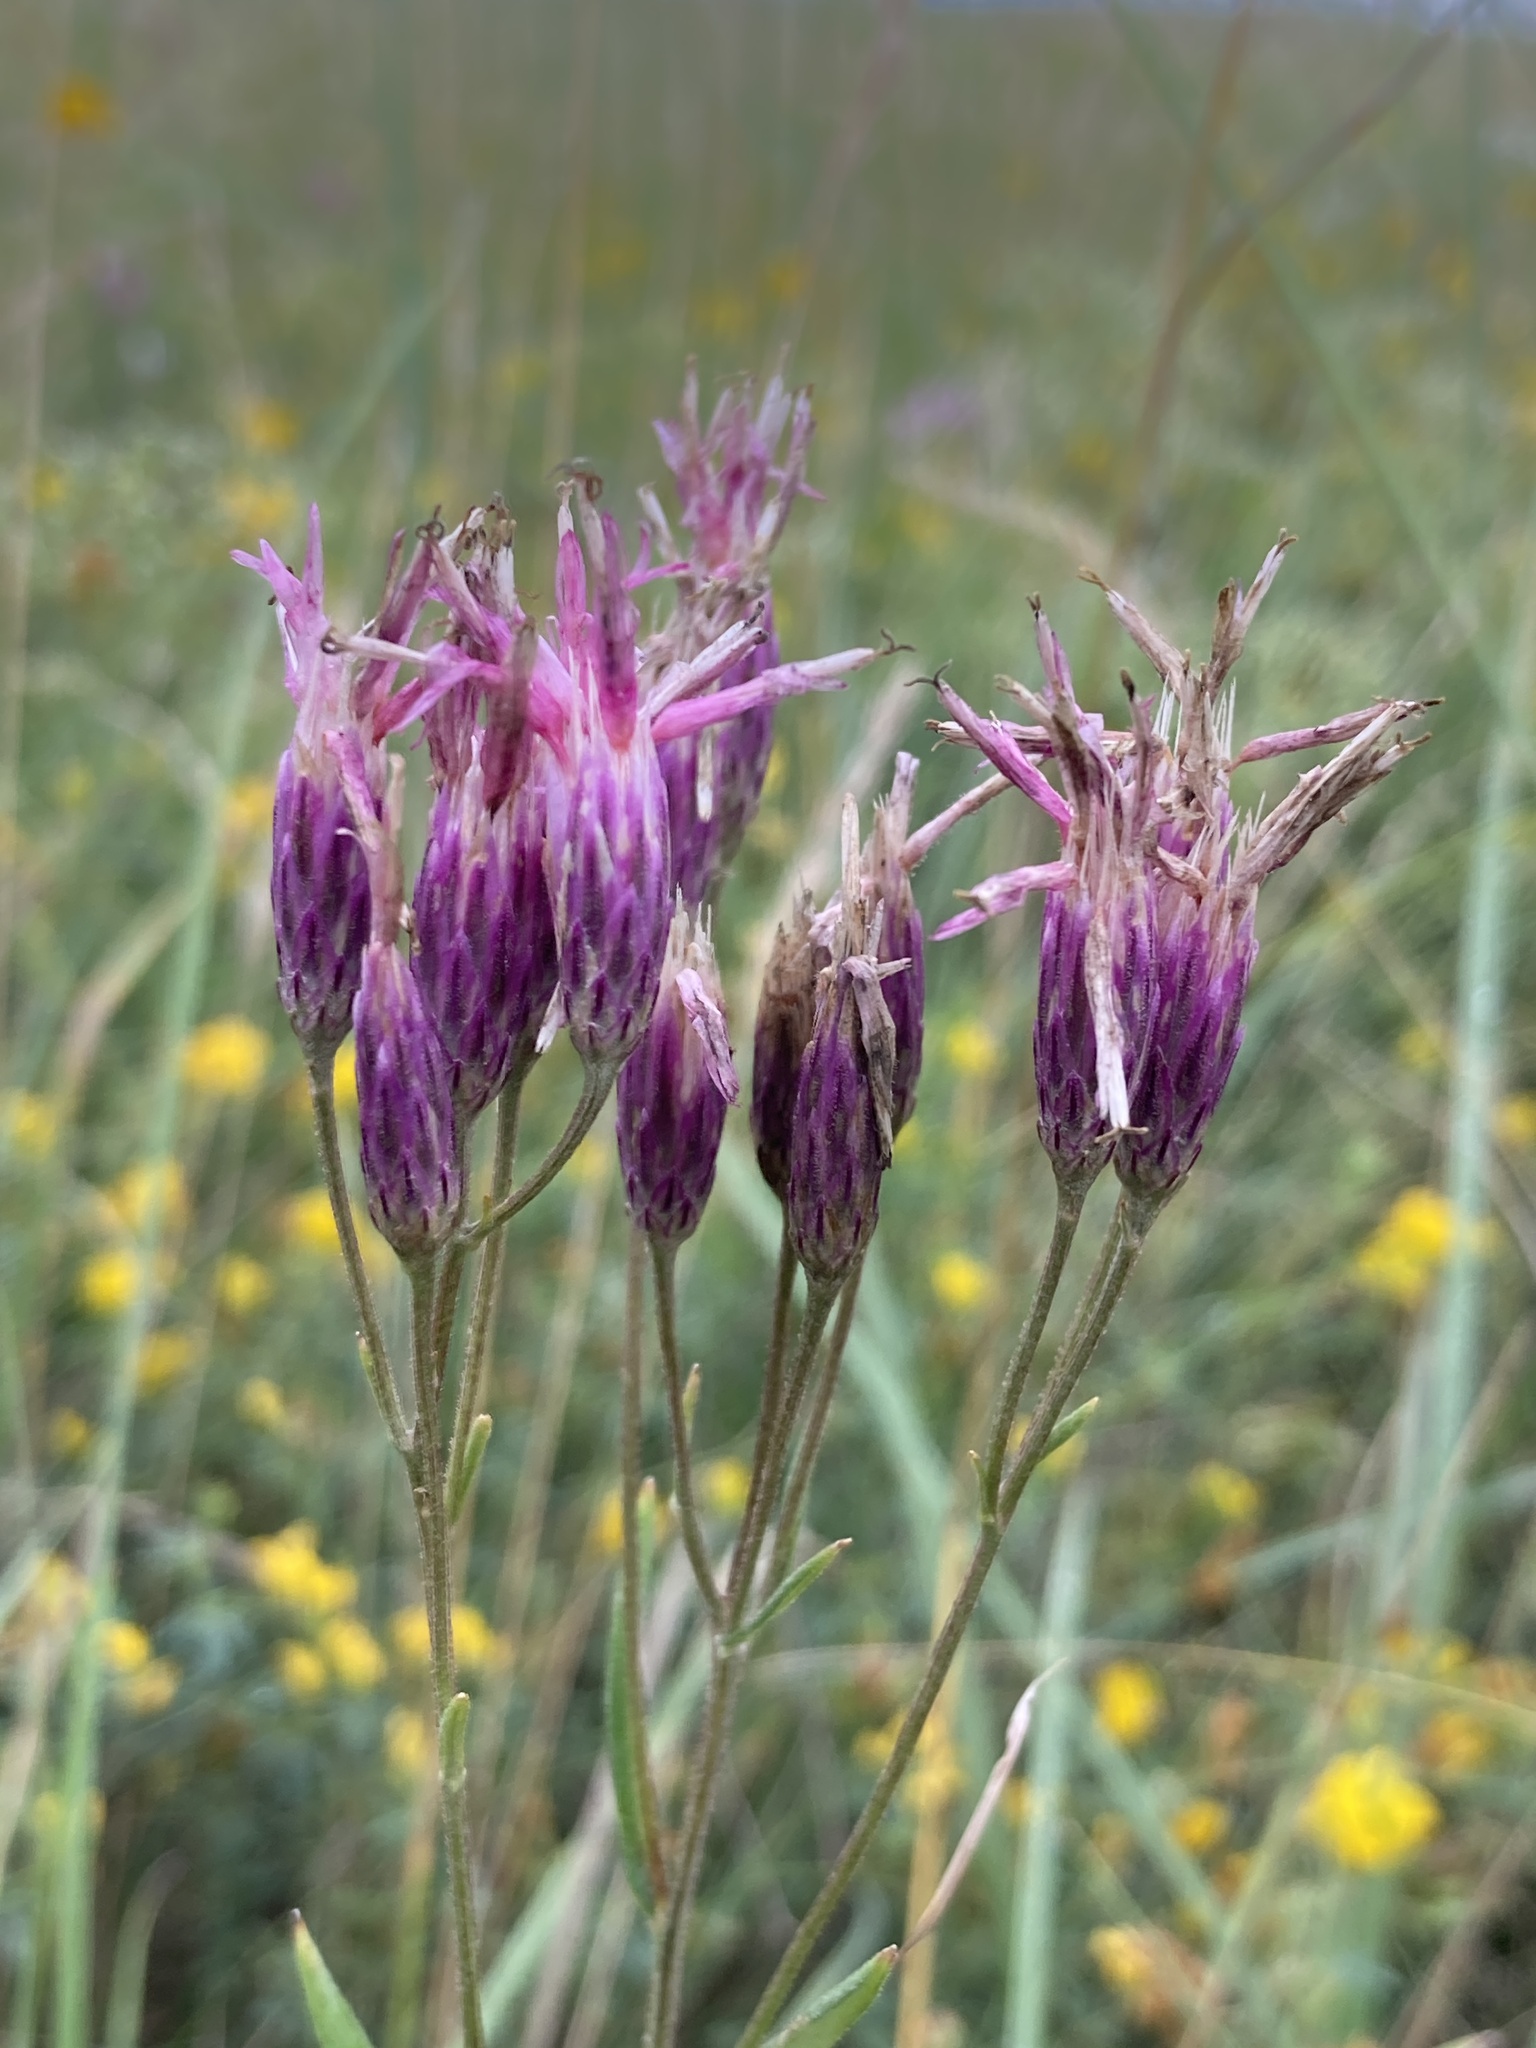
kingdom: Plantae
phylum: Tracheophyta
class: Magnoliopsida
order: Asterales
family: Asteraceae
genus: Jurinea
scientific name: Jurinea multiflora
